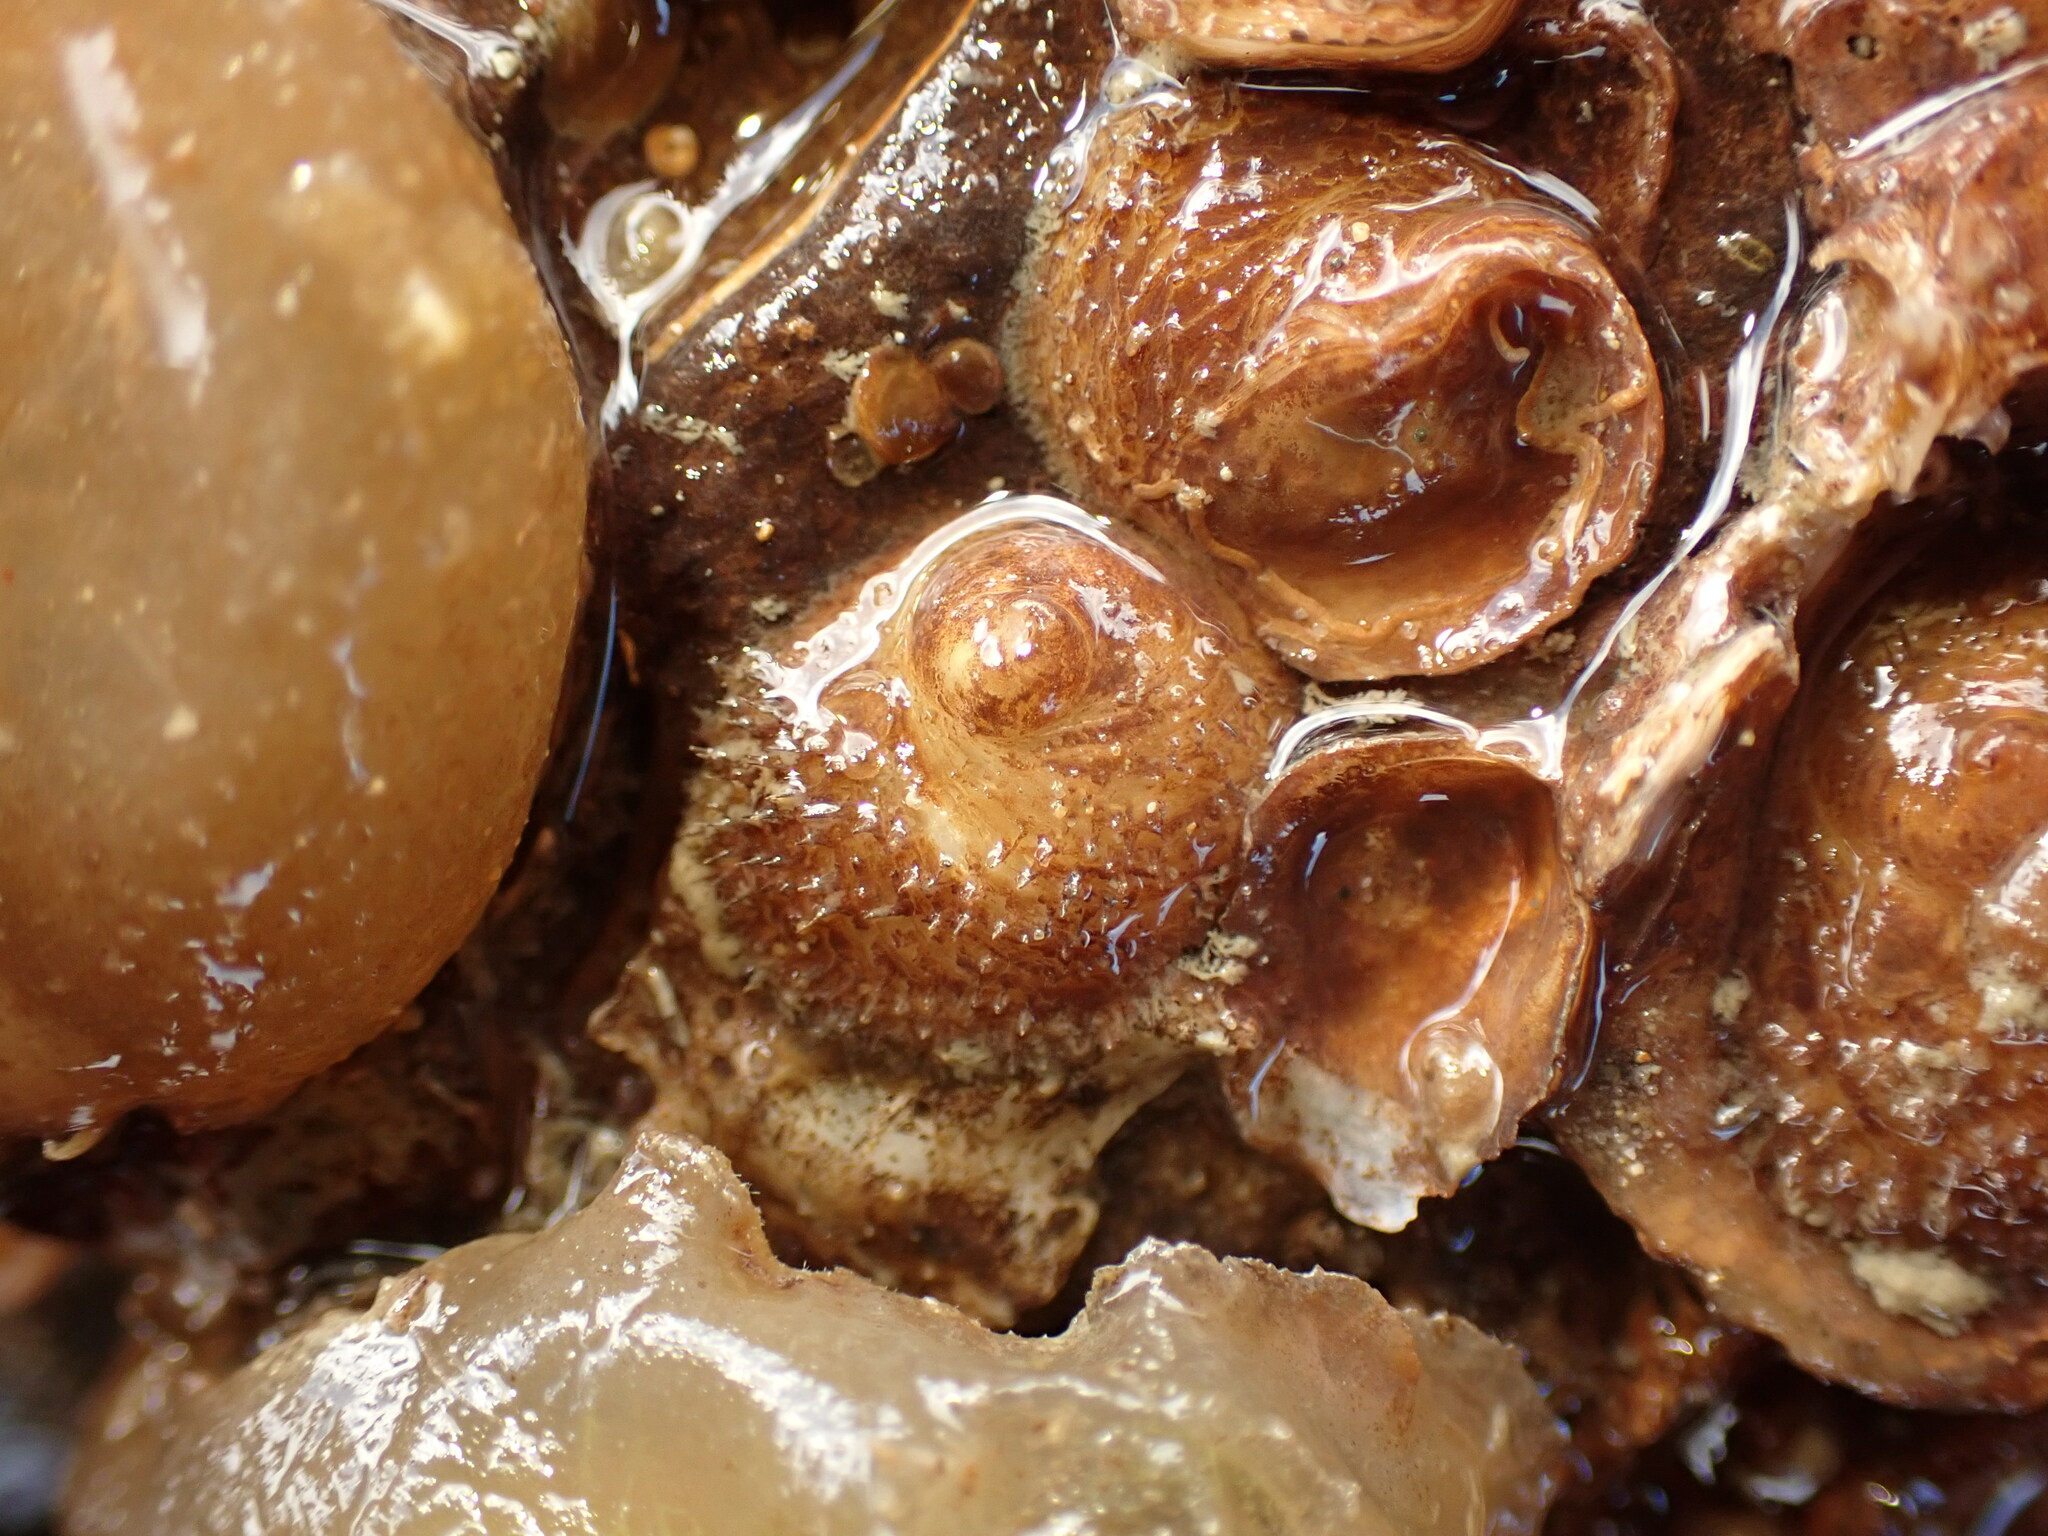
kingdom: Animalia
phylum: Mollusca
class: Gastropoda
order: Littorinimorpha
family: Calyptraeidae
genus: Sigapatella
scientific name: Sigapatella novaezelandiae
